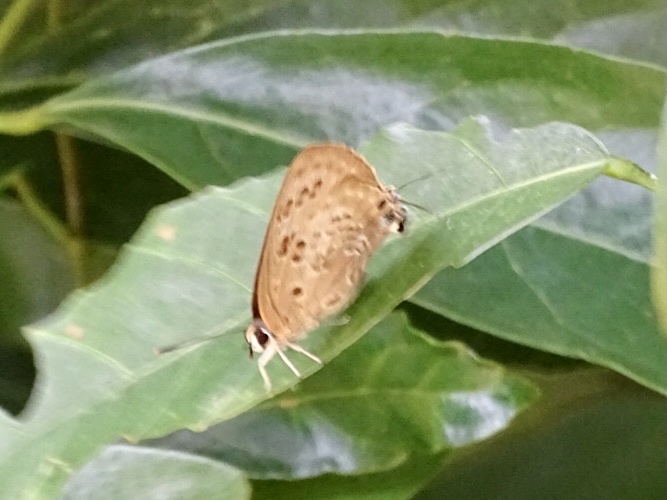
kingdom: Animalia
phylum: Arthropoda
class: Insecta
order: Lepidoptera
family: Lycaenidae
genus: Deudorix
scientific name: Deudorix smilis
